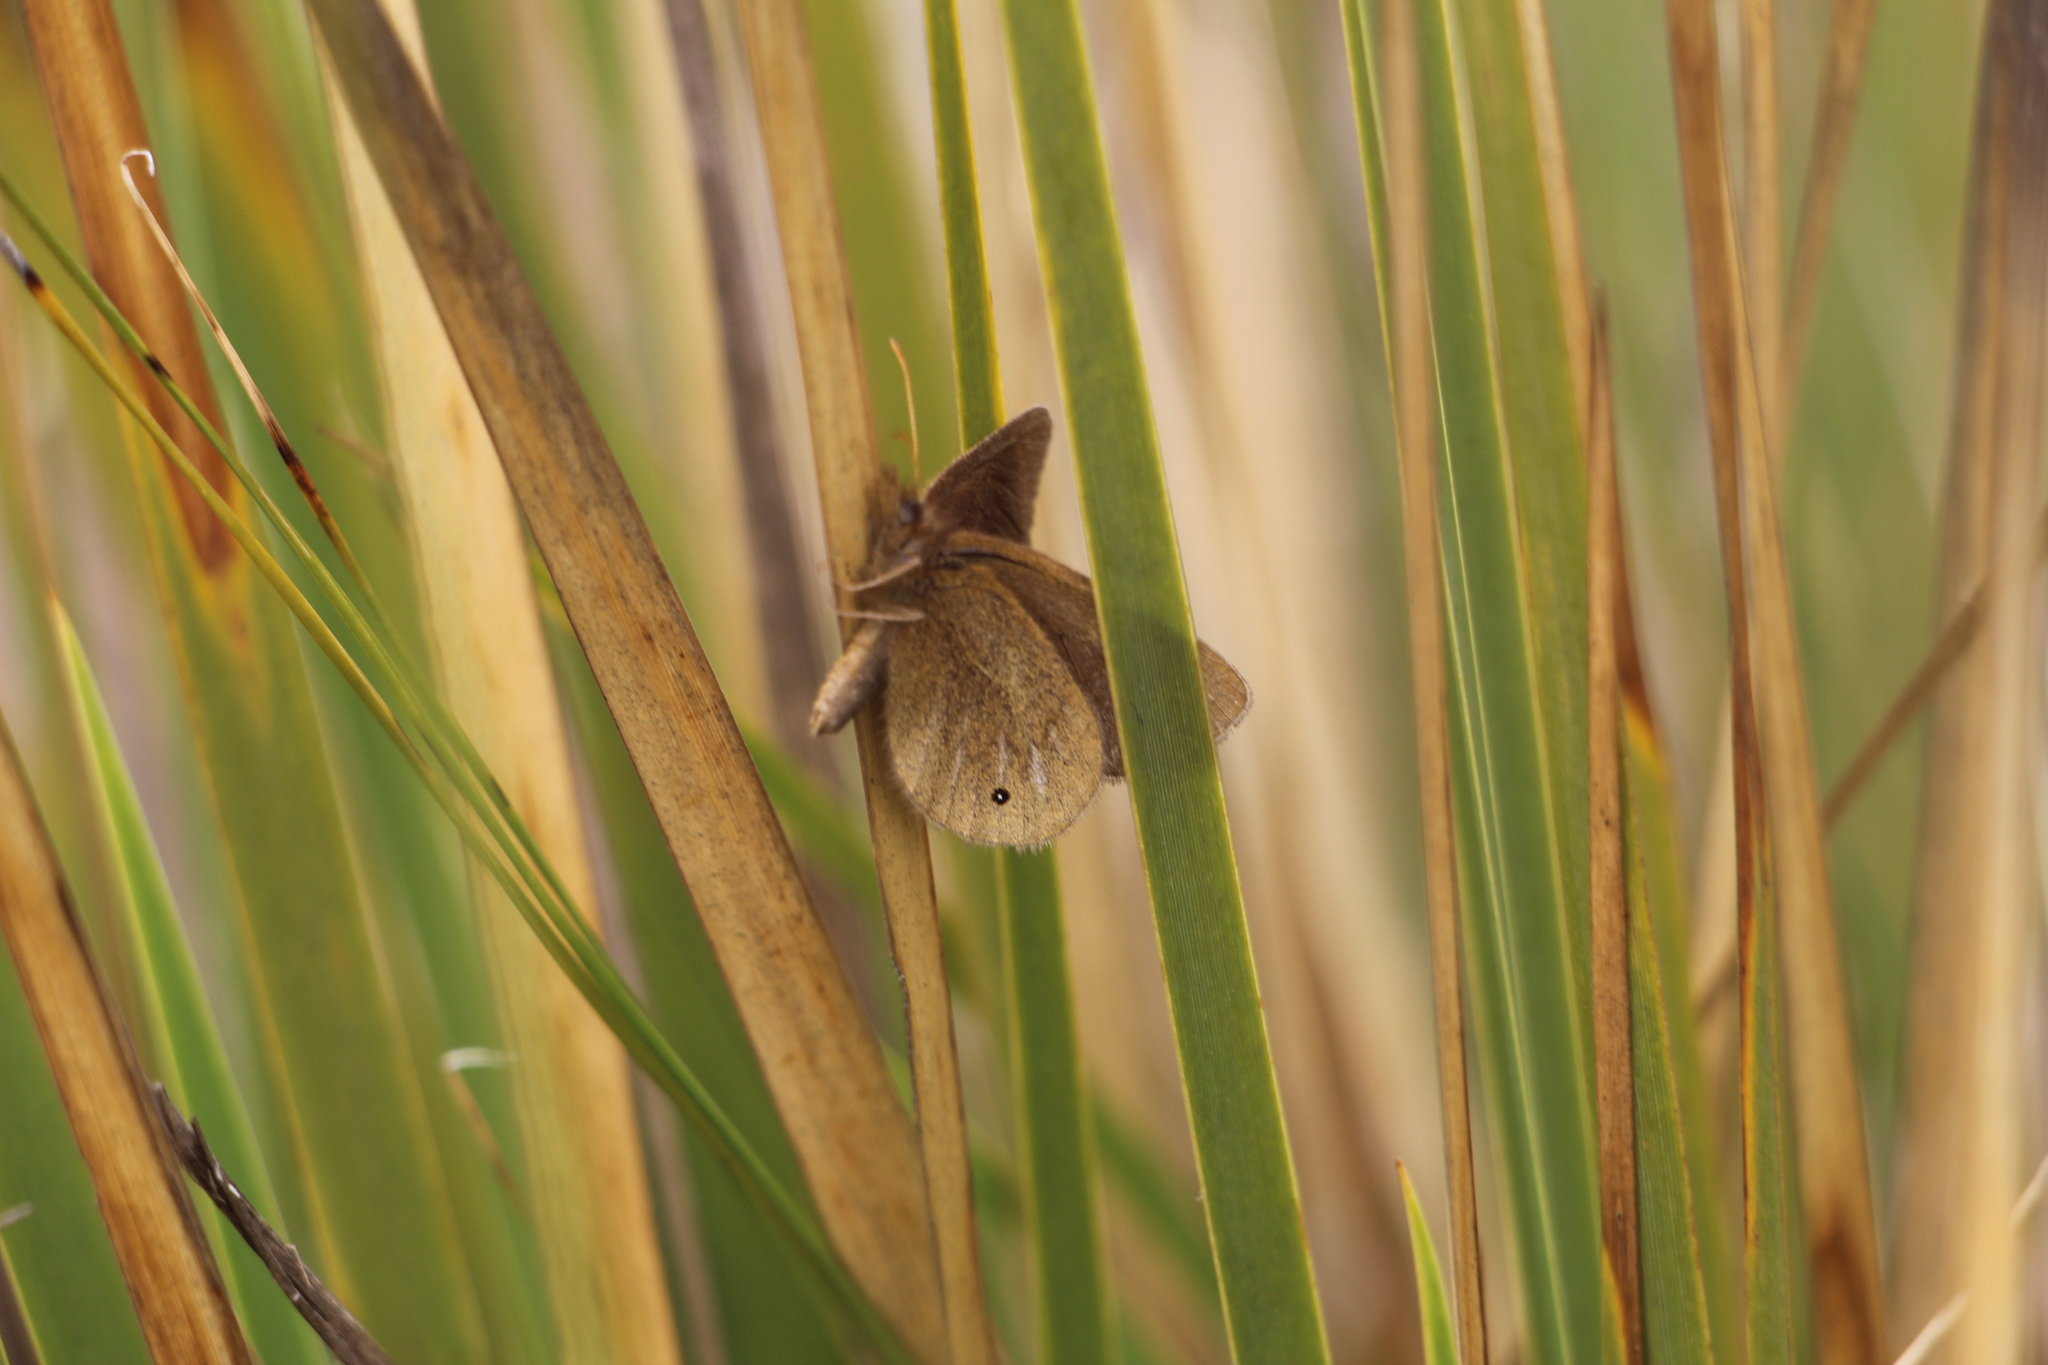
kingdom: Animalia
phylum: Arthropoda
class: Insecta
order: Lepidoptera
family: Nymphalidae
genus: Idioneurula
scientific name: Idioneurula erebioides
